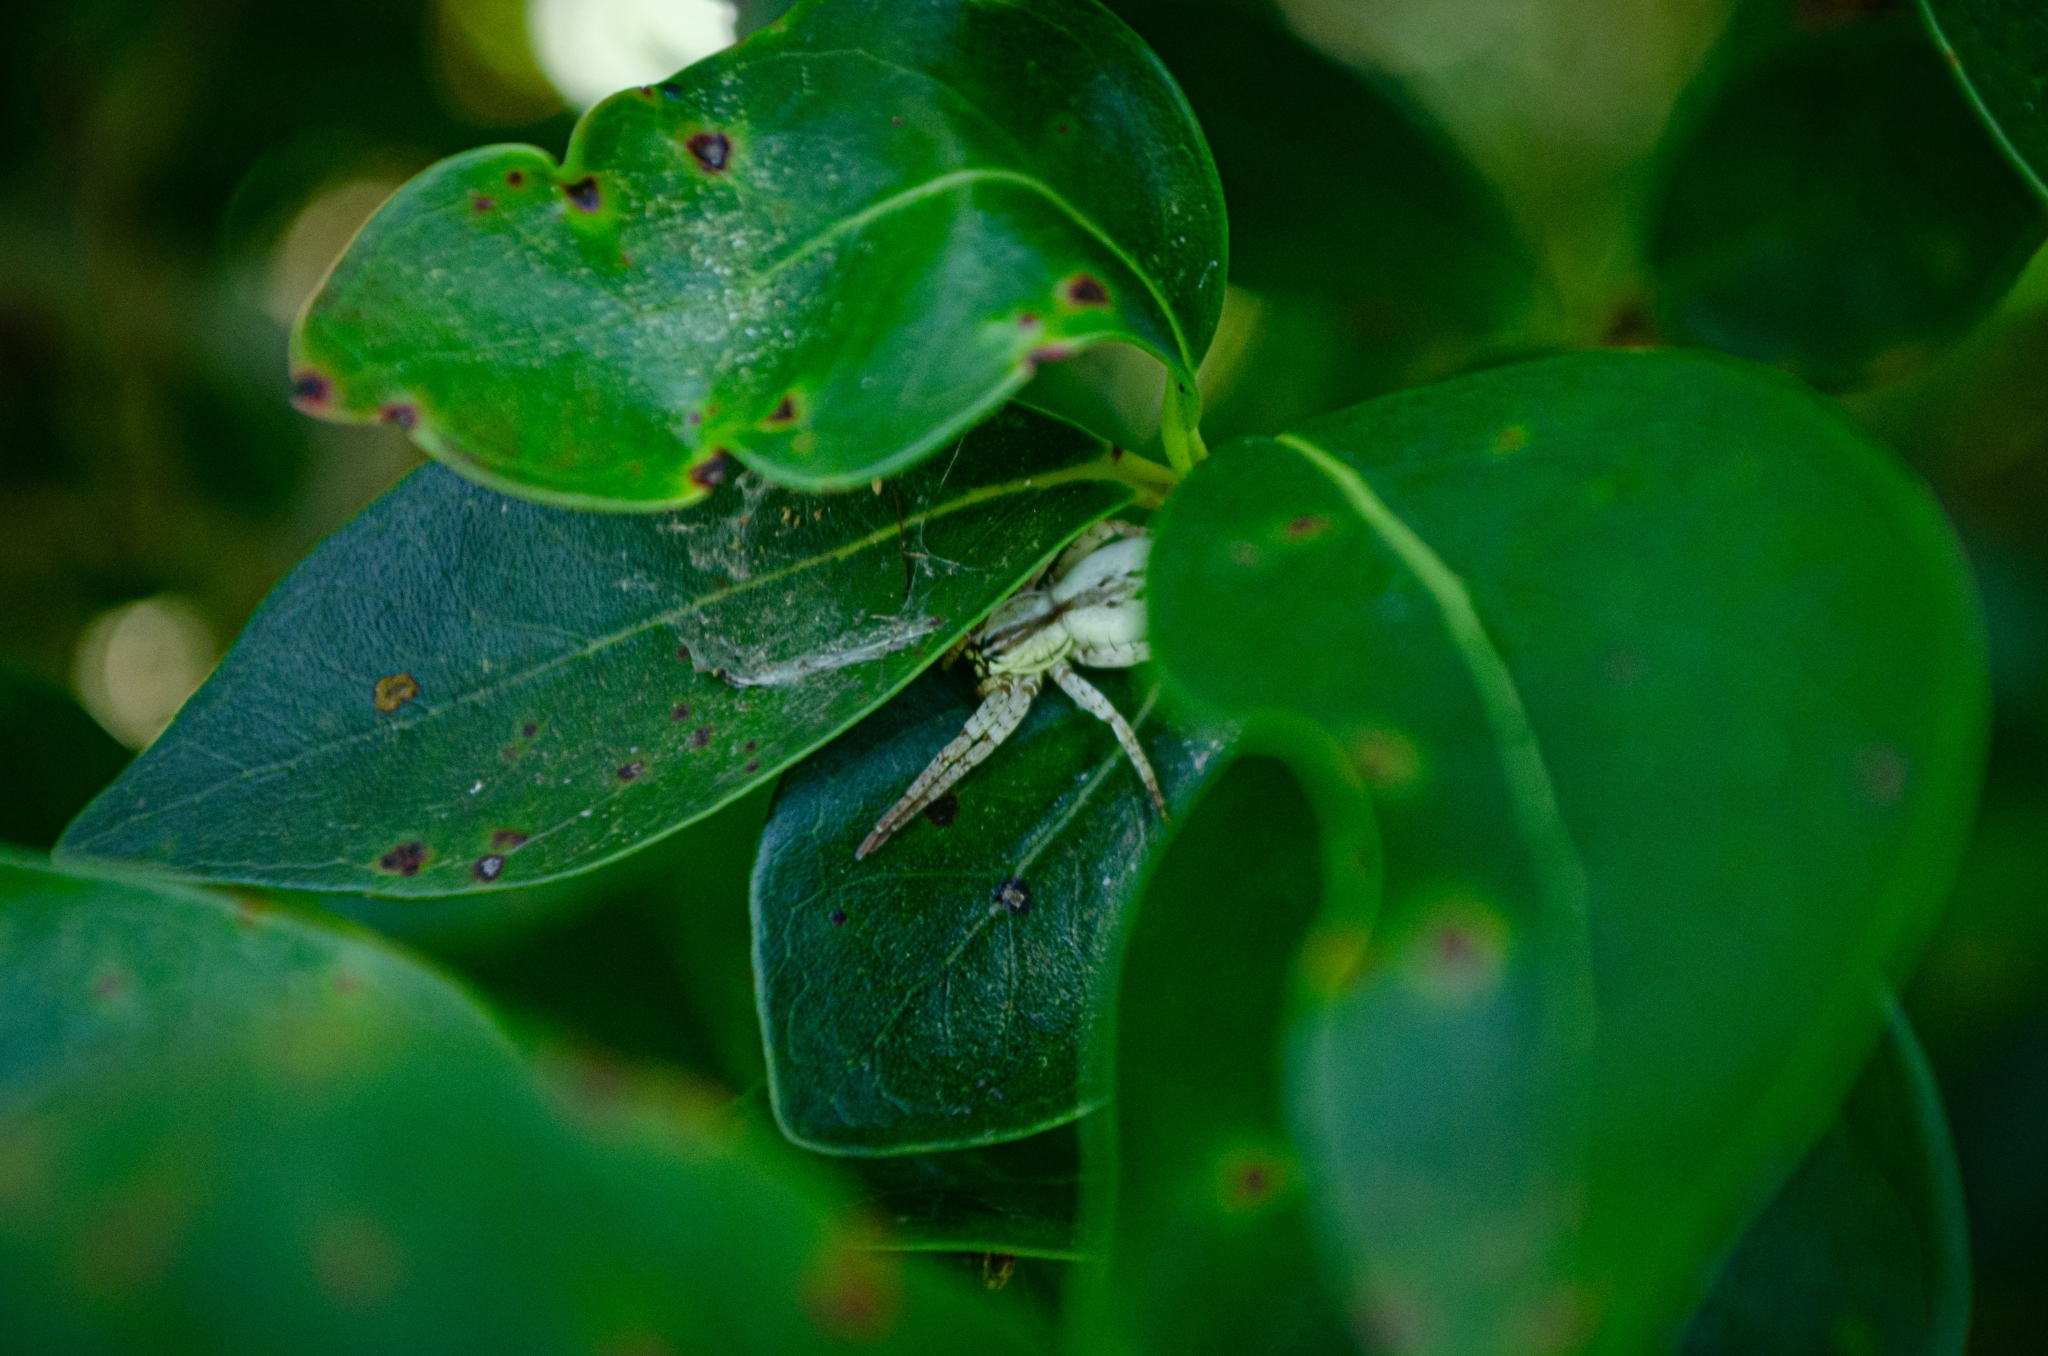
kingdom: Animalia
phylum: Arthropoda
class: Arachnida
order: Araneae
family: Anyphaenidae
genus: Arachosia
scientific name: Arachosia praesignis
